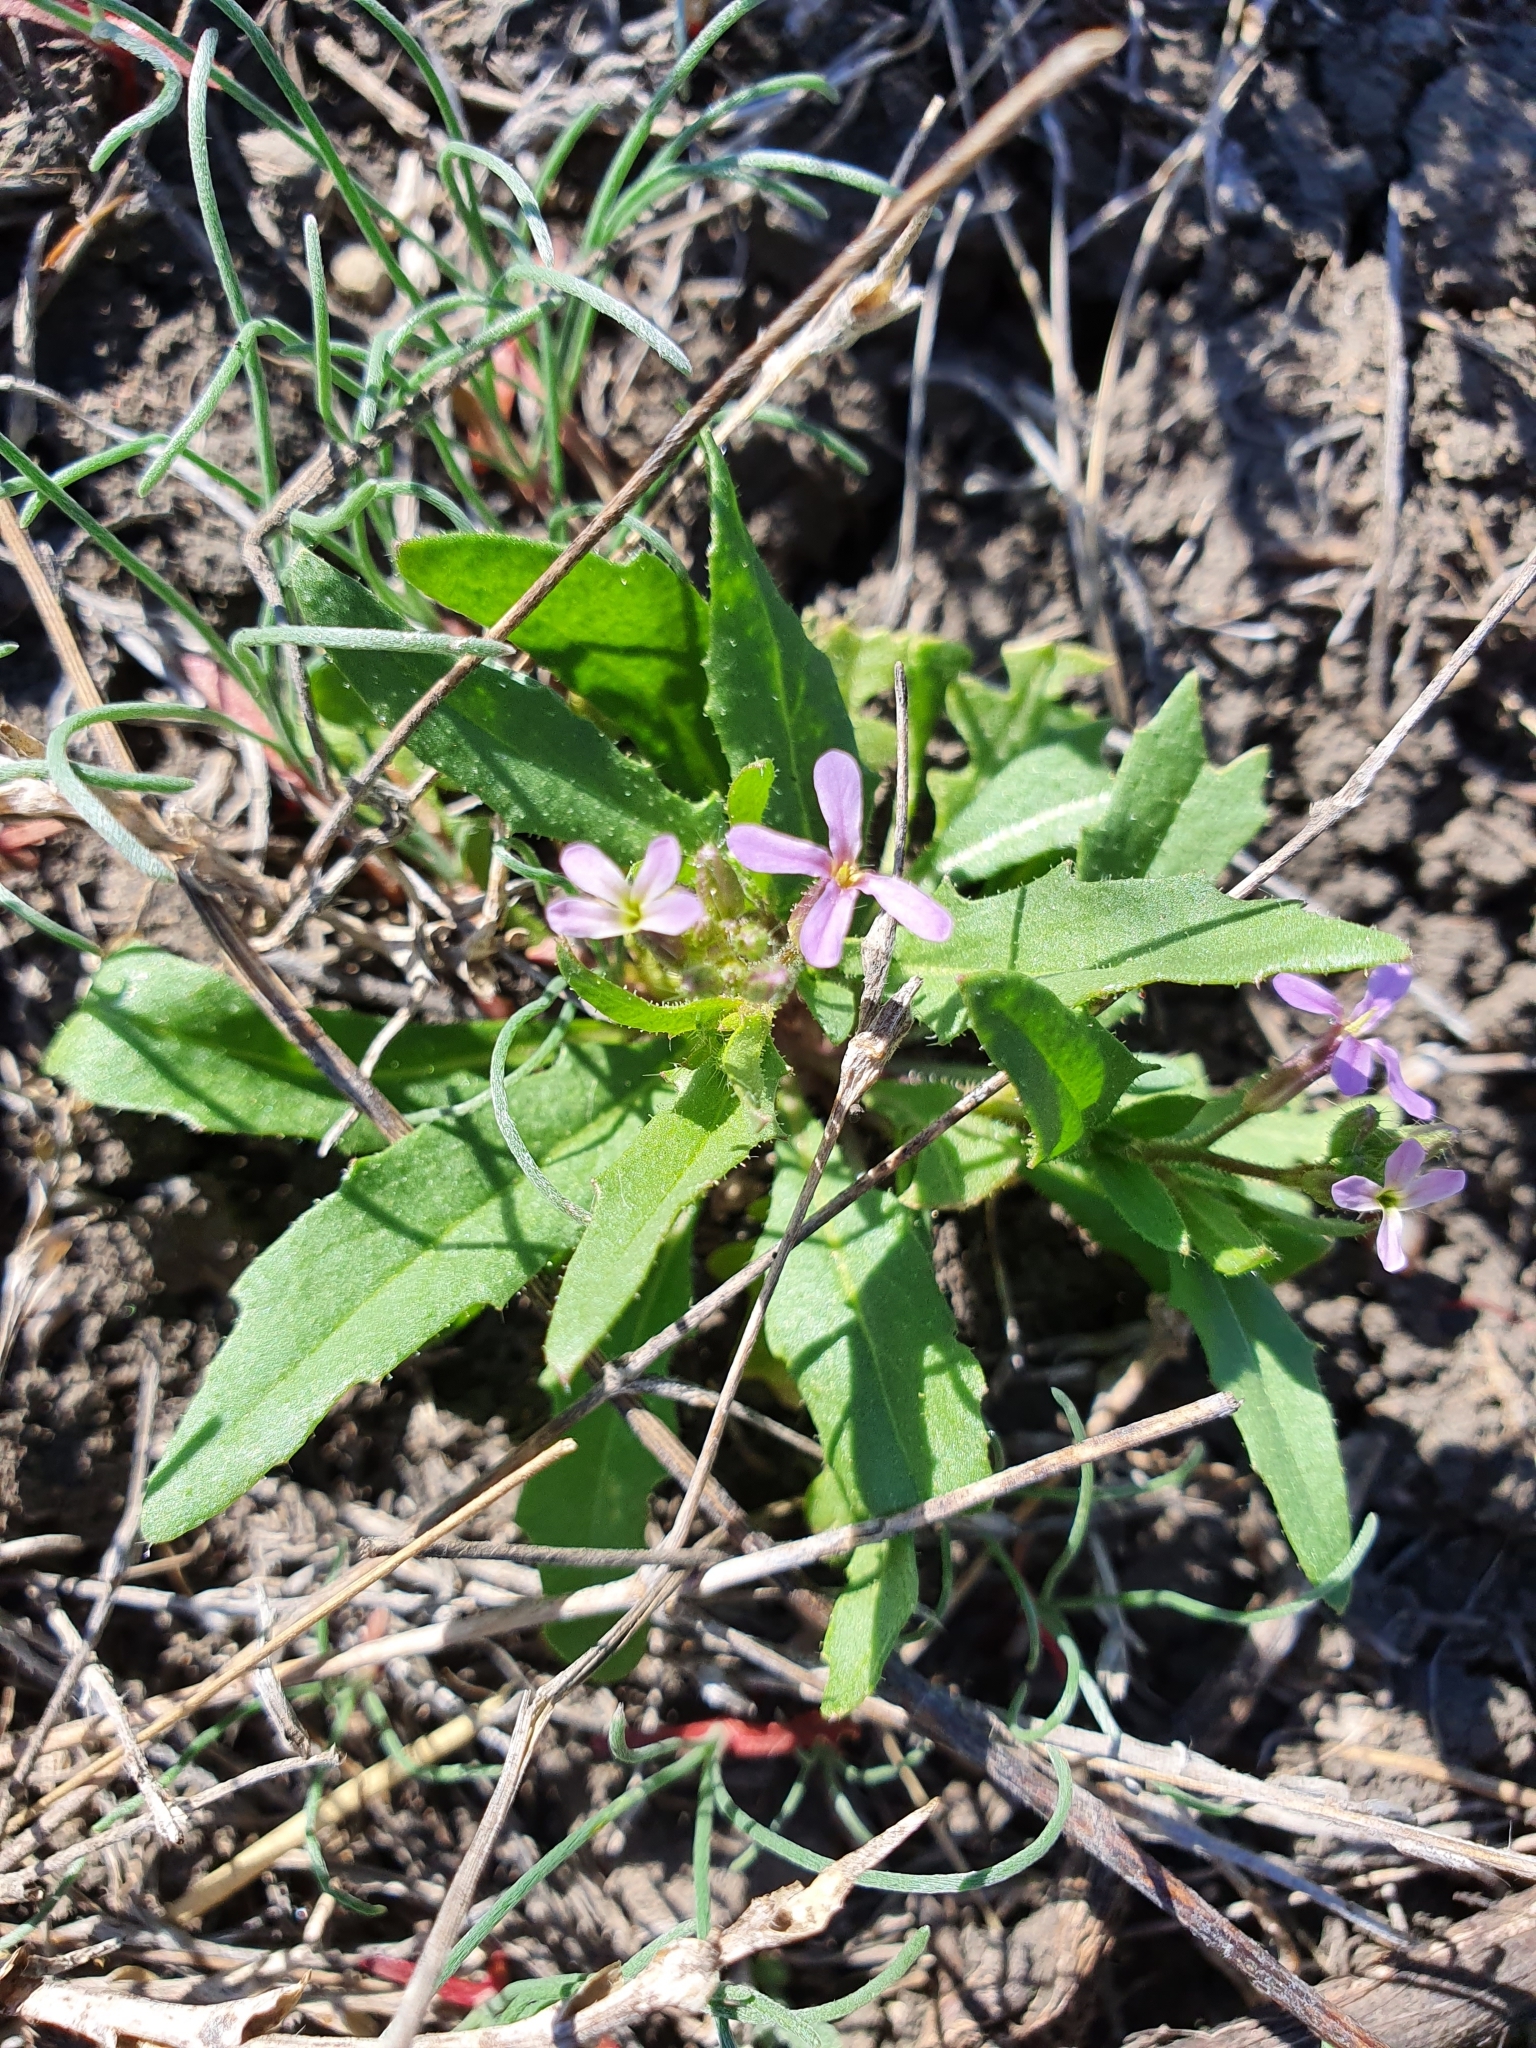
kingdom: Plantae
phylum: Tracheophyta
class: Magnoliopsida
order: Brassicales
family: Brassicaceae
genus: Chorispora
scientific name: Chorispora tenella
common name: Crossflower
